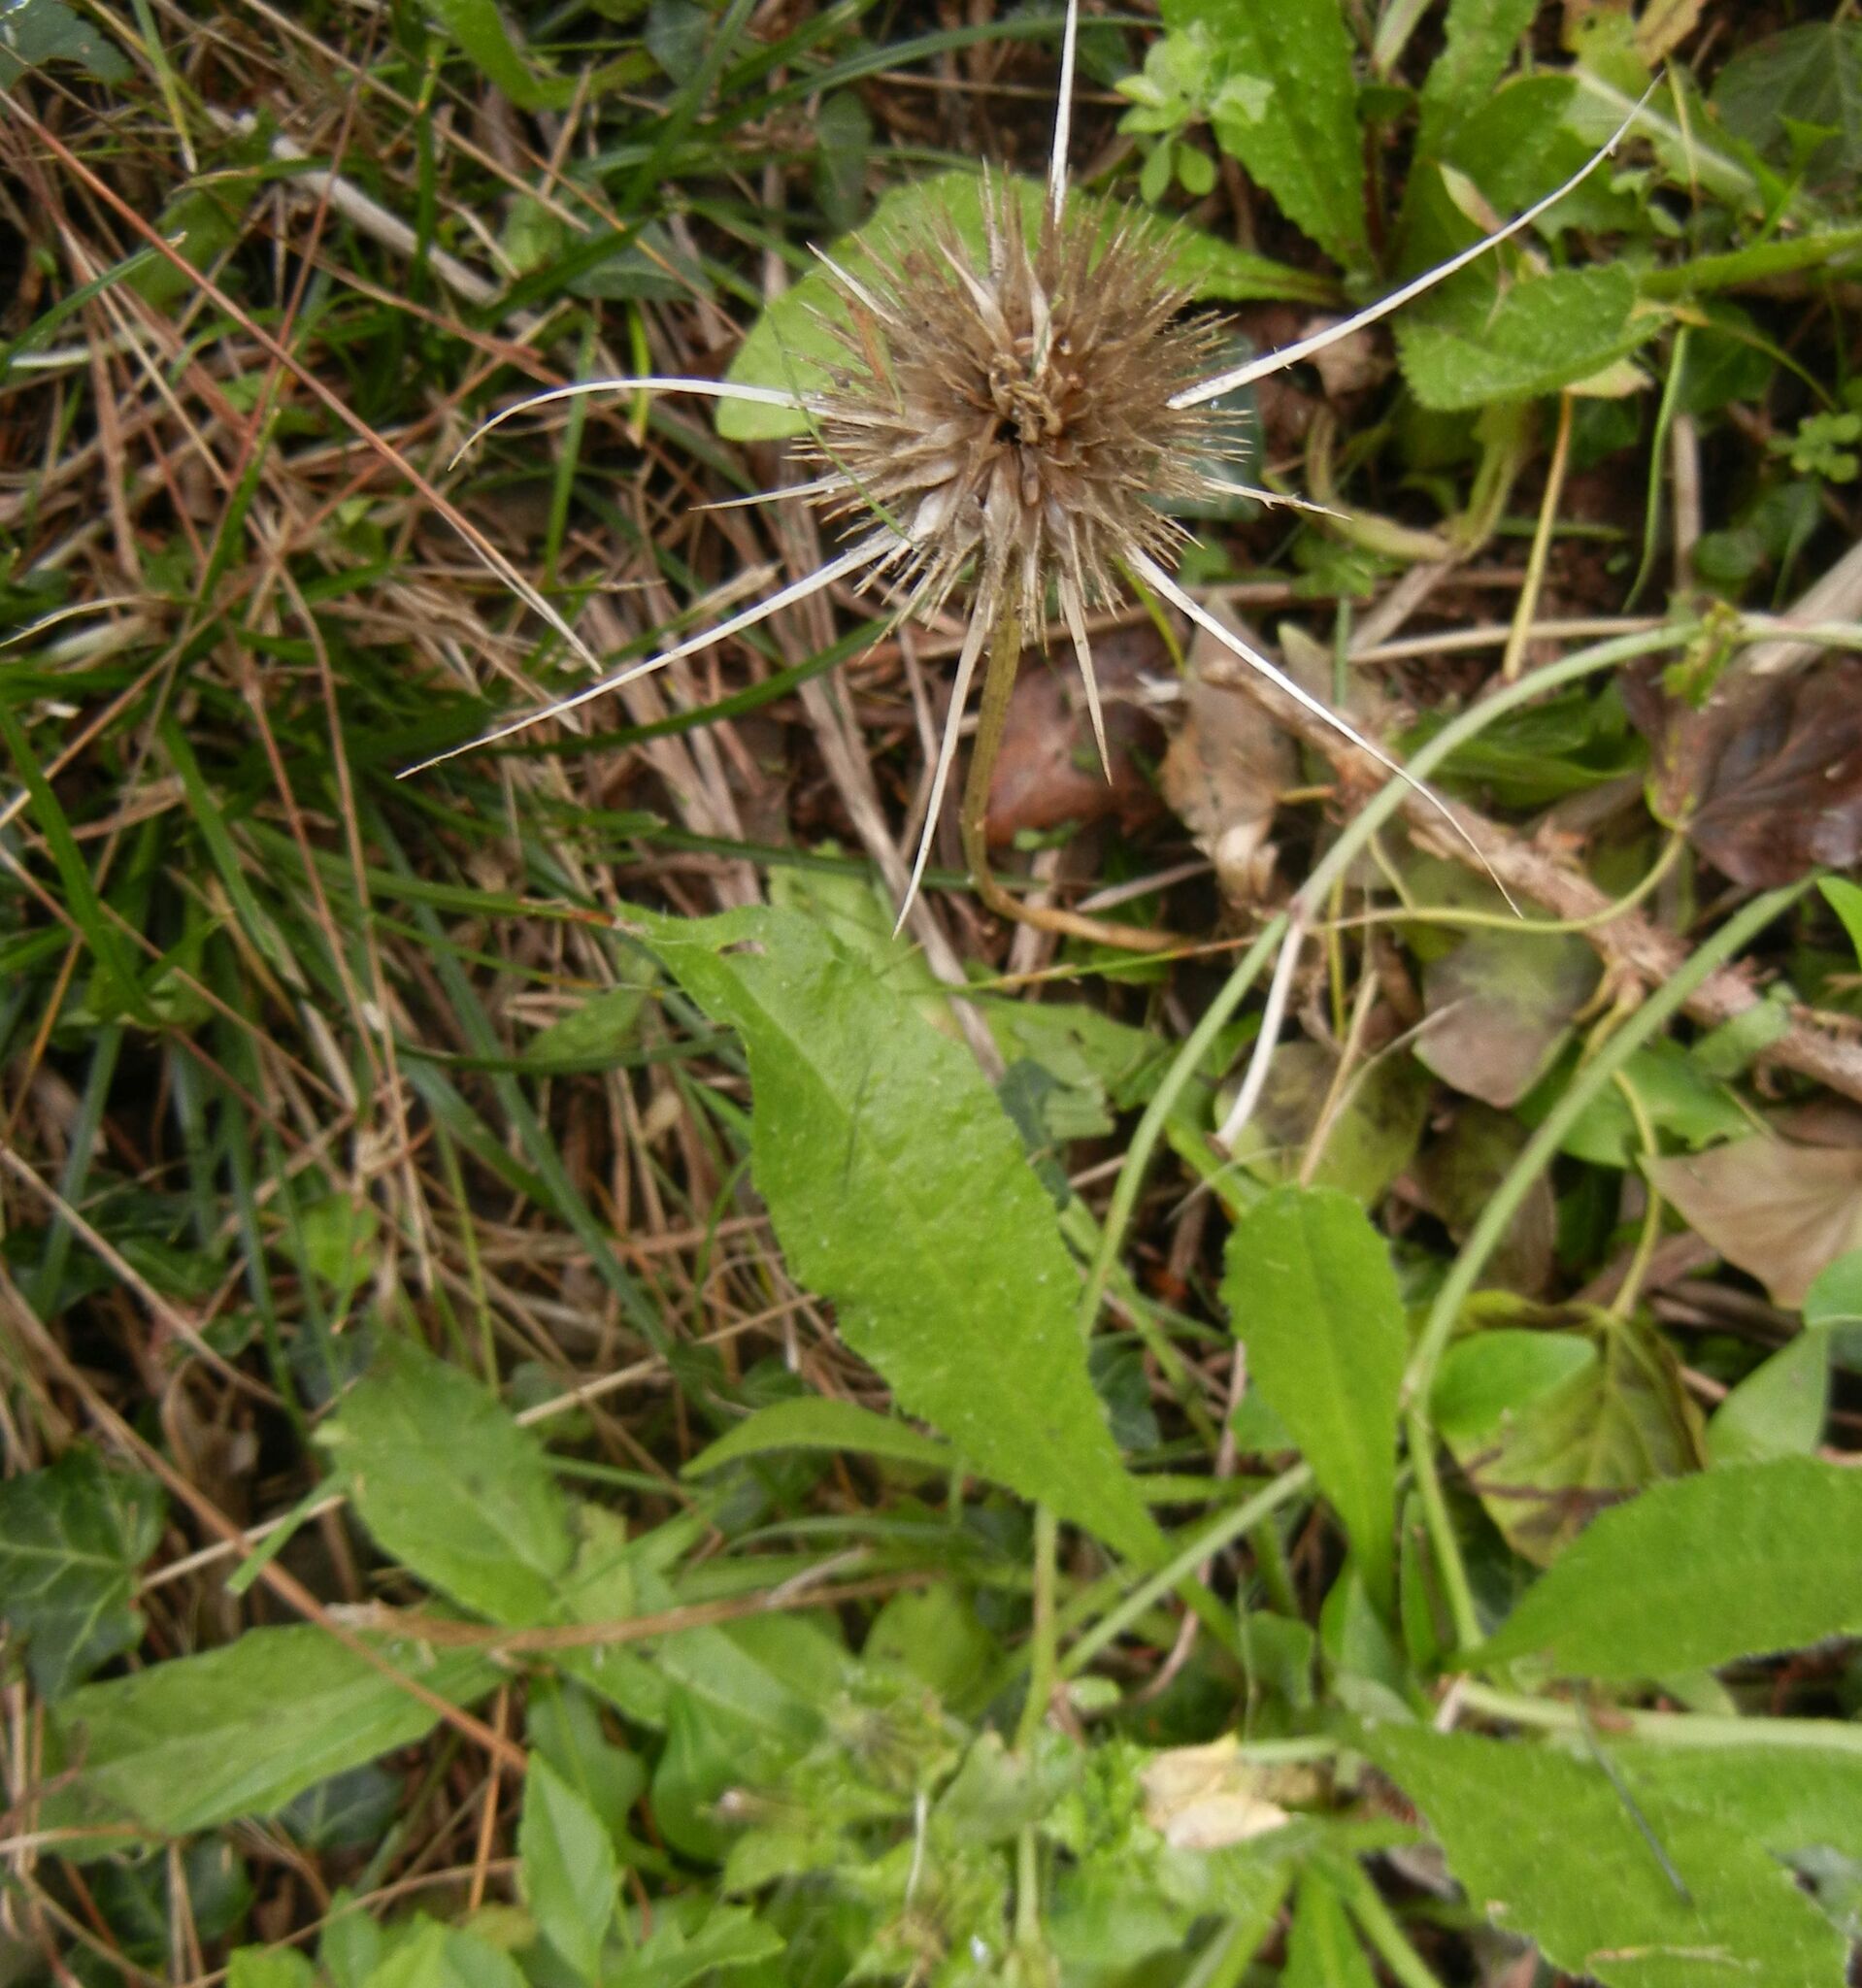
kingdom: Plantae
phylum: Tracheophyta
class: Magnoliopsida
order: Dipsacales
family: Caprifoliaceae
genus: Dipsacus
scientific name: Dipsacus fullonum
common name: Teasel
